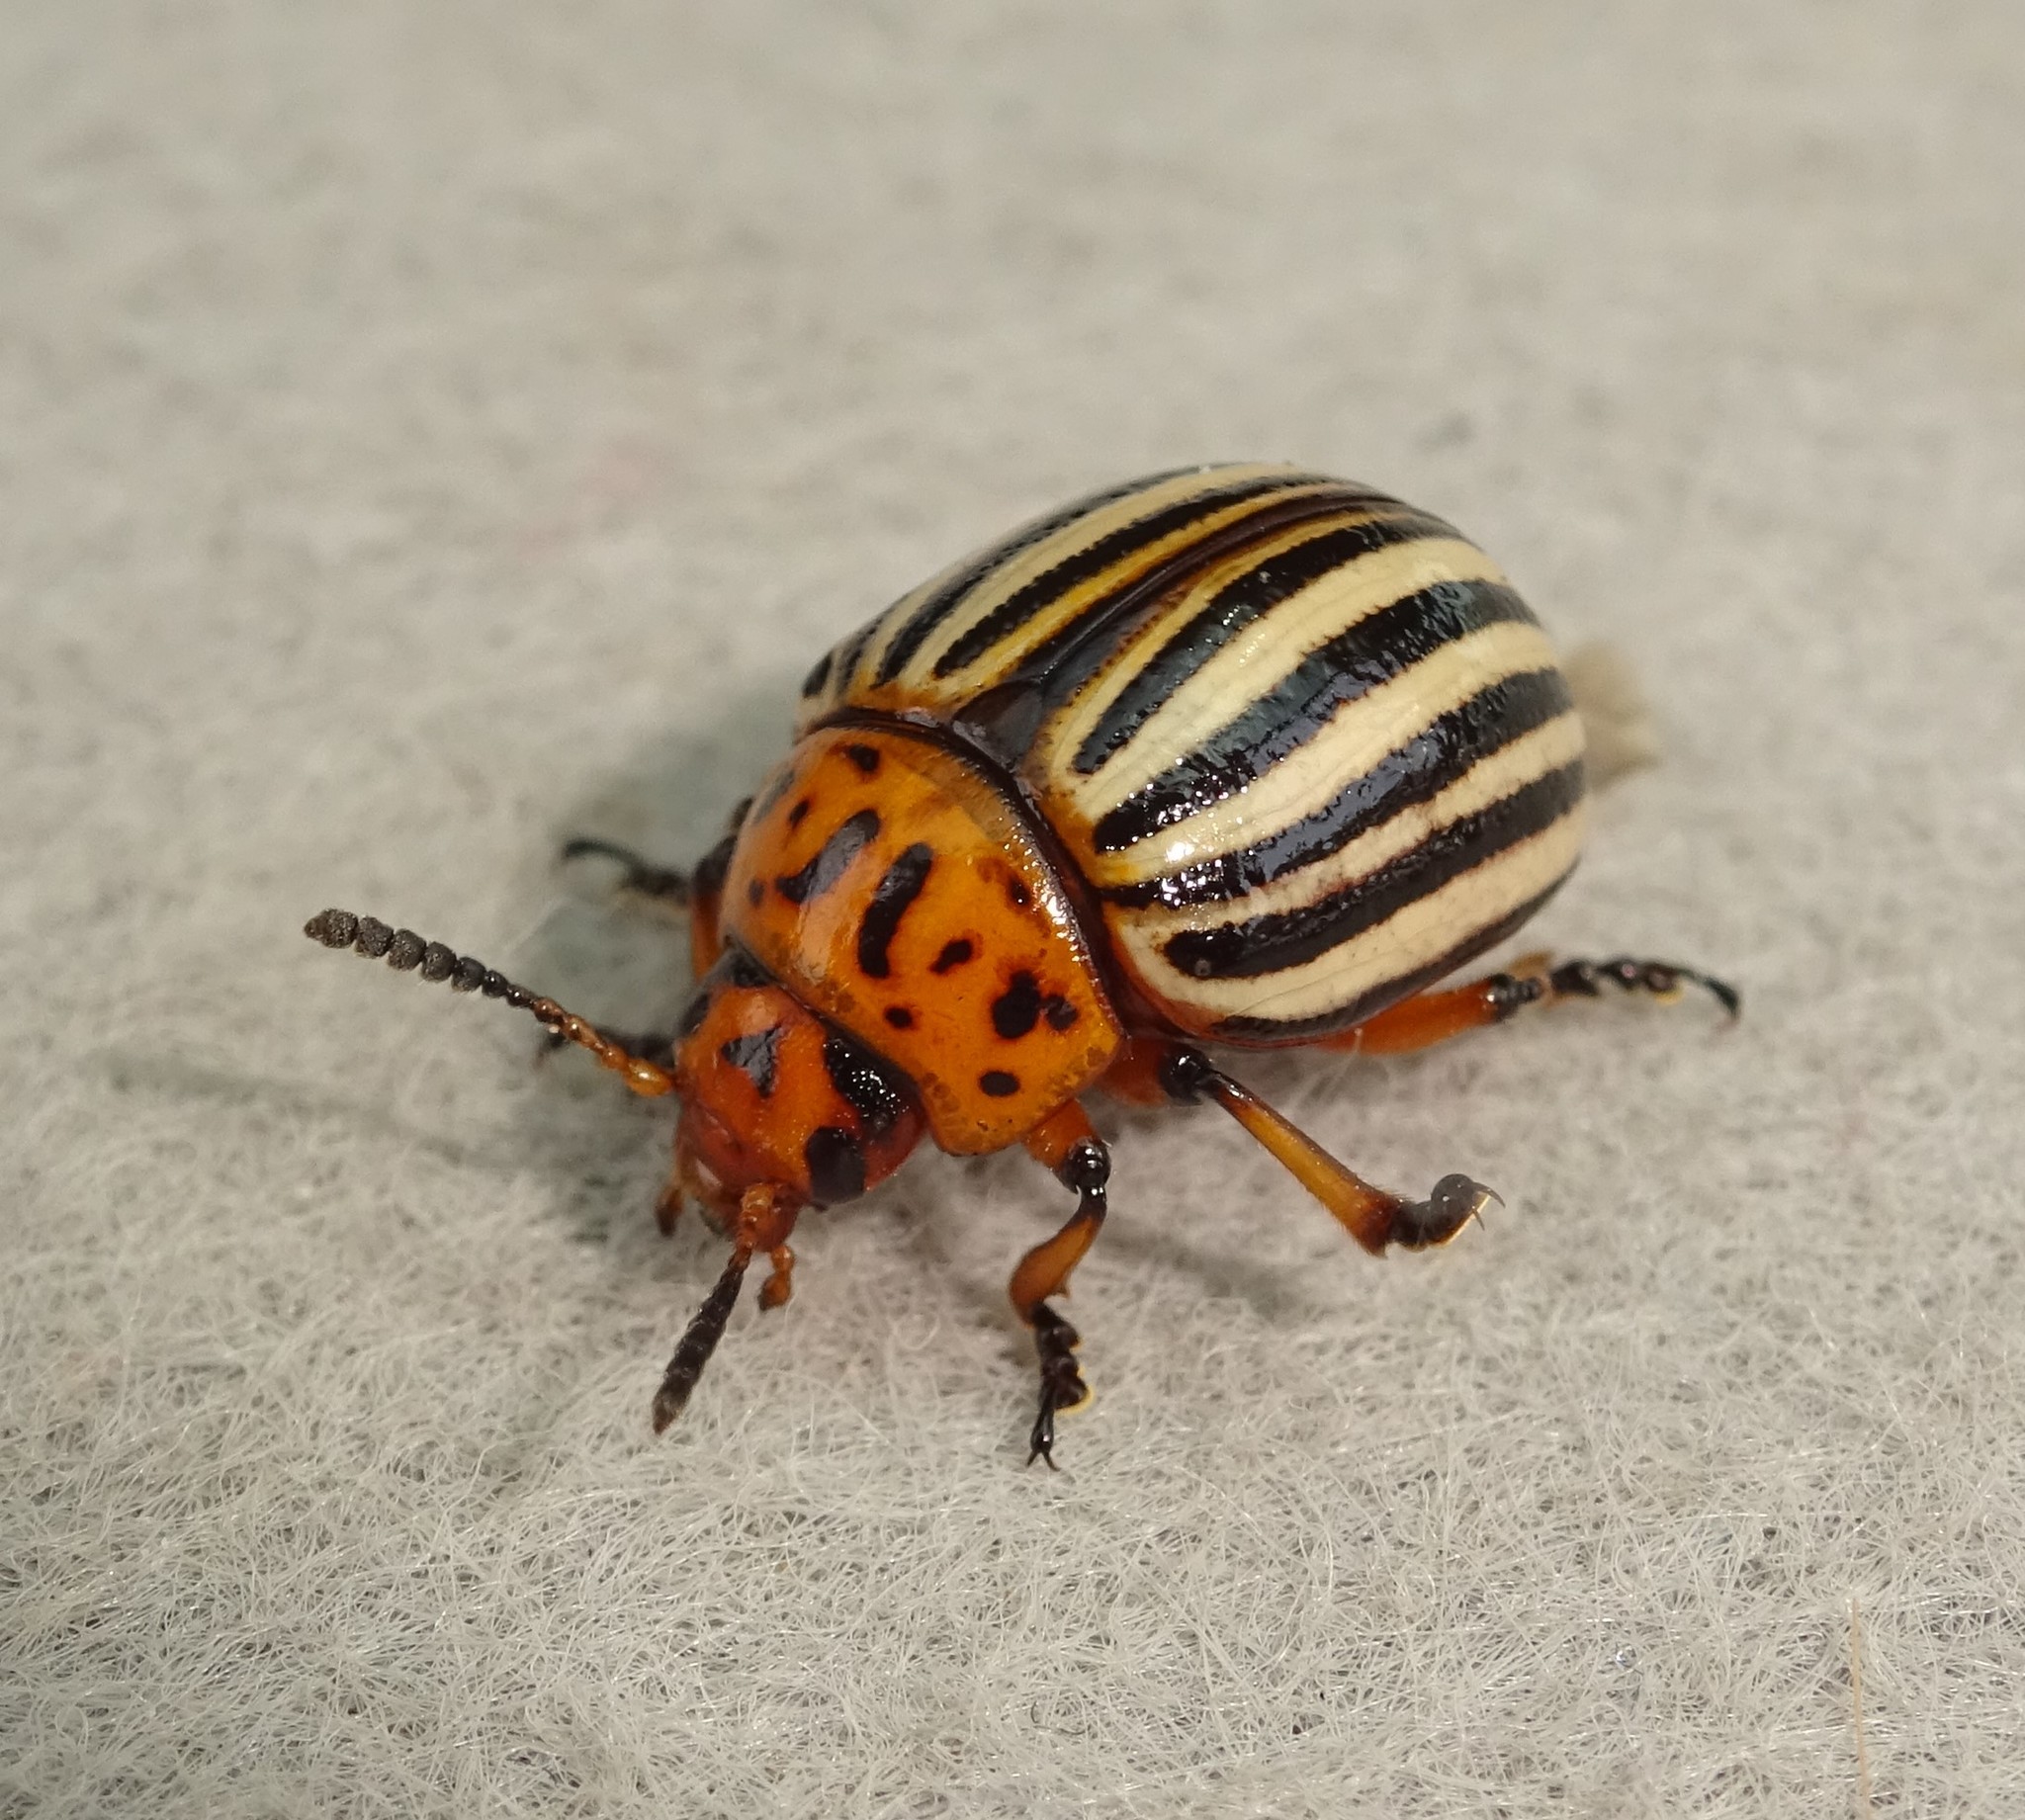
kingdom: Animalia
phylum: Arthropoda
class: Insecta
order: Coleoptera
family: Chrysomelidae
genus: Leptinotarsa
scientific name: Leptinotarsa decemlineata
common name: Colorado potato beetle
